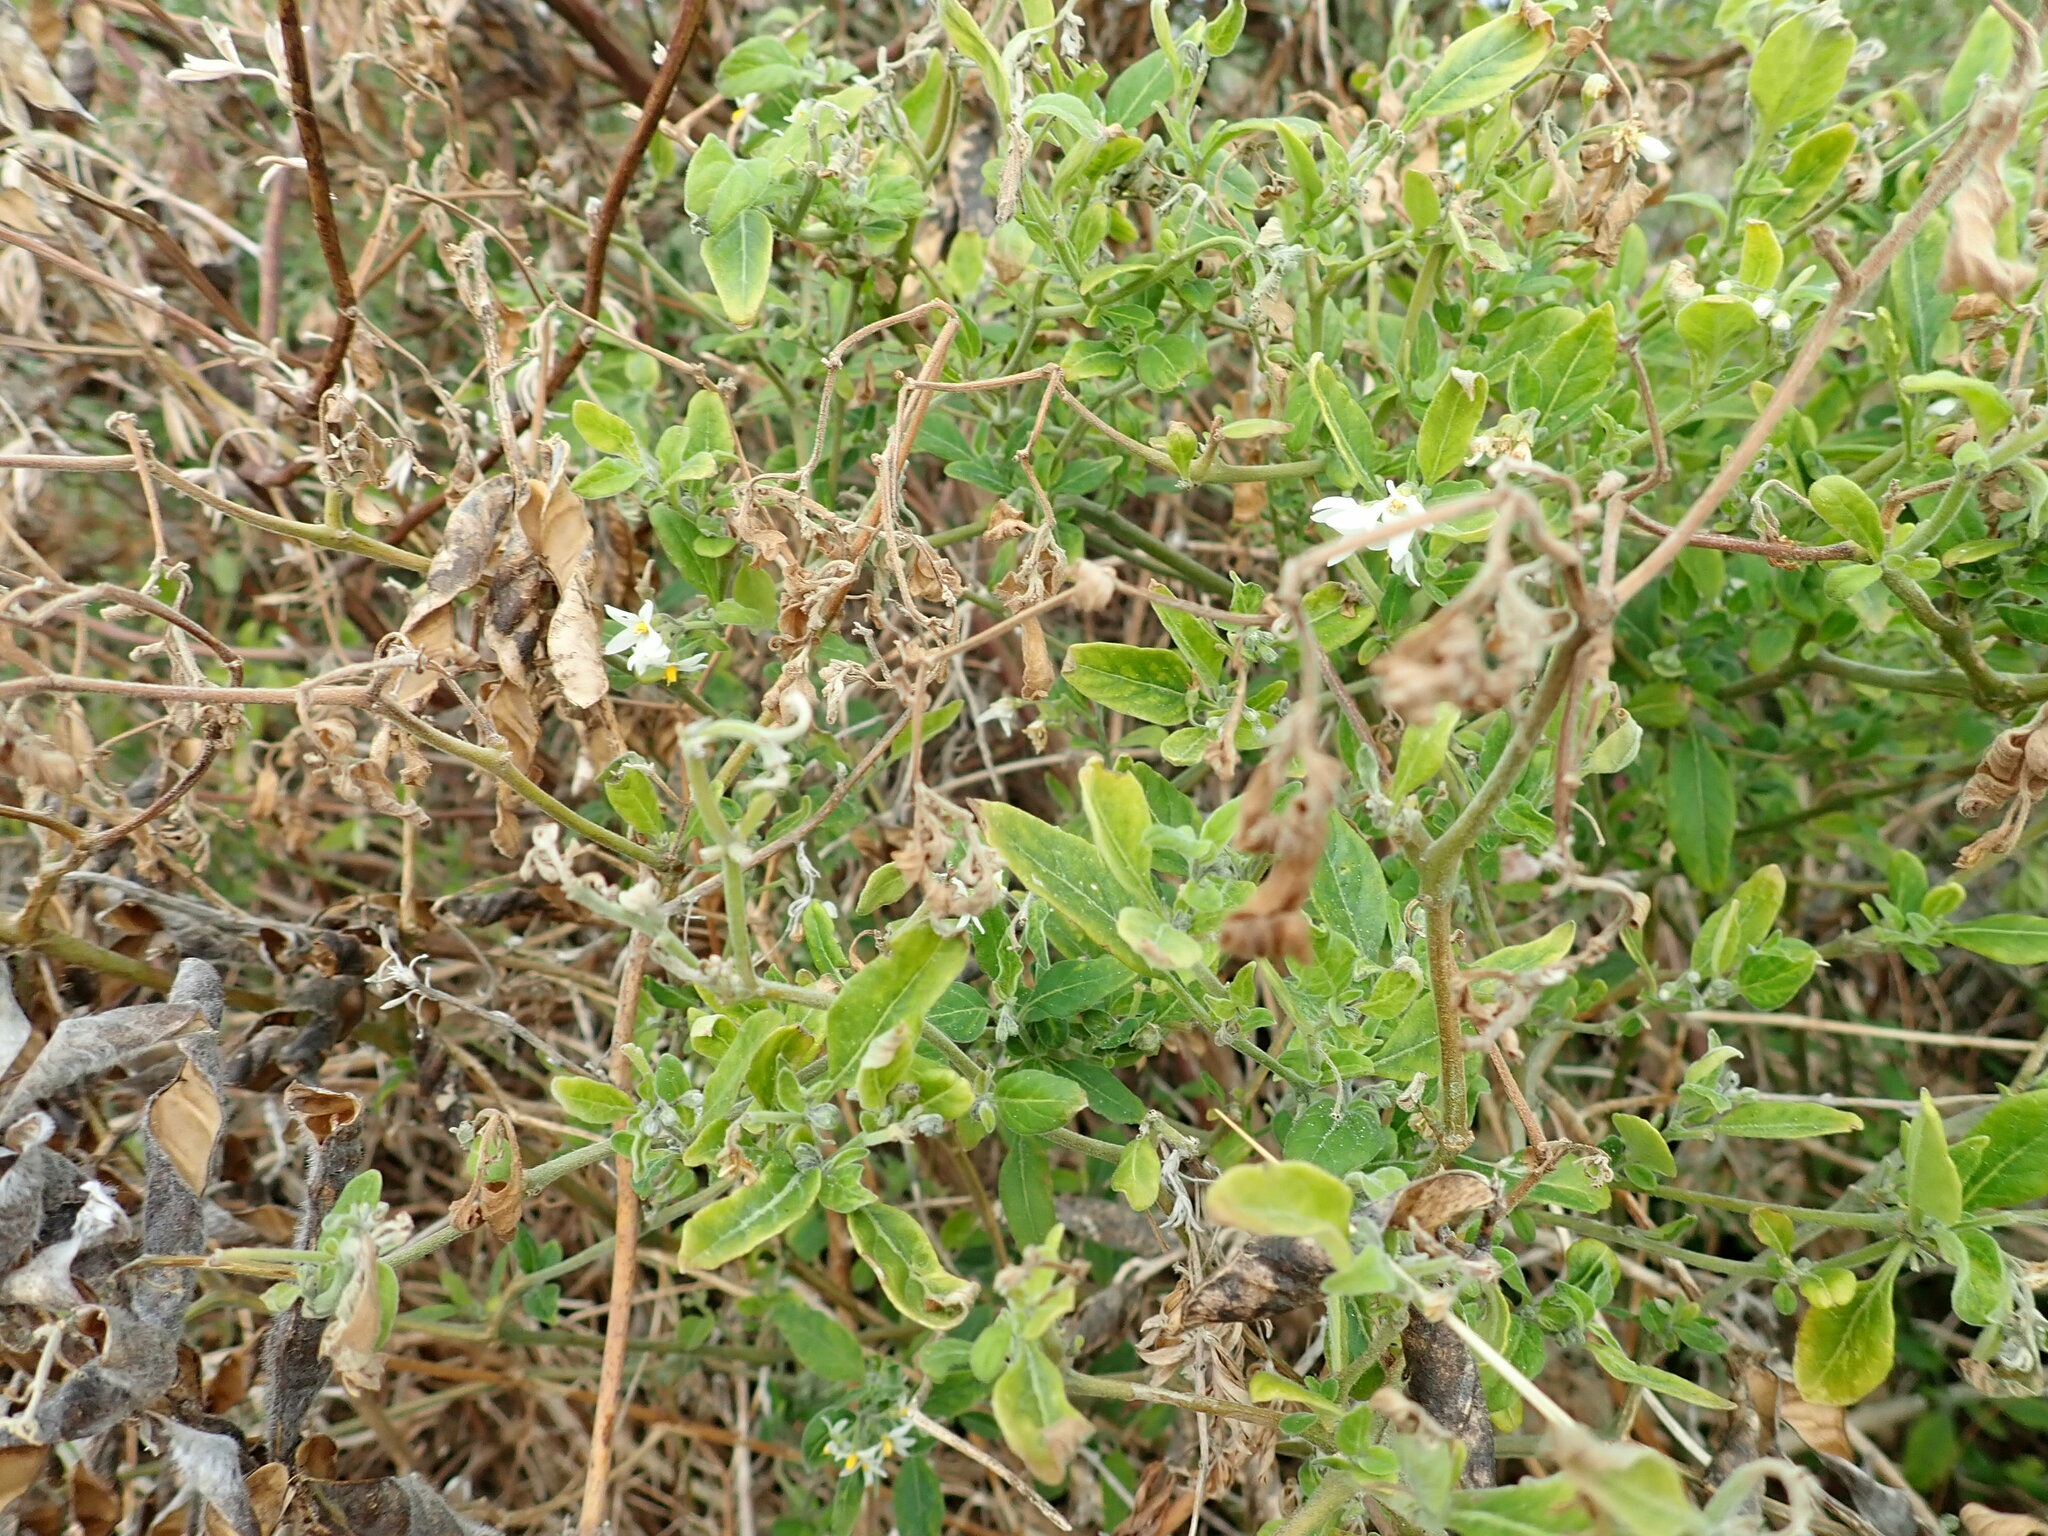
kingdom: Plantae
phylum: Tracheophyta
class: Magnoliopsida
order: Solanales
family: Solanaceae
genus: Solanum
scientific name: Solanum chenopodioides
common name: Tall nightshade
